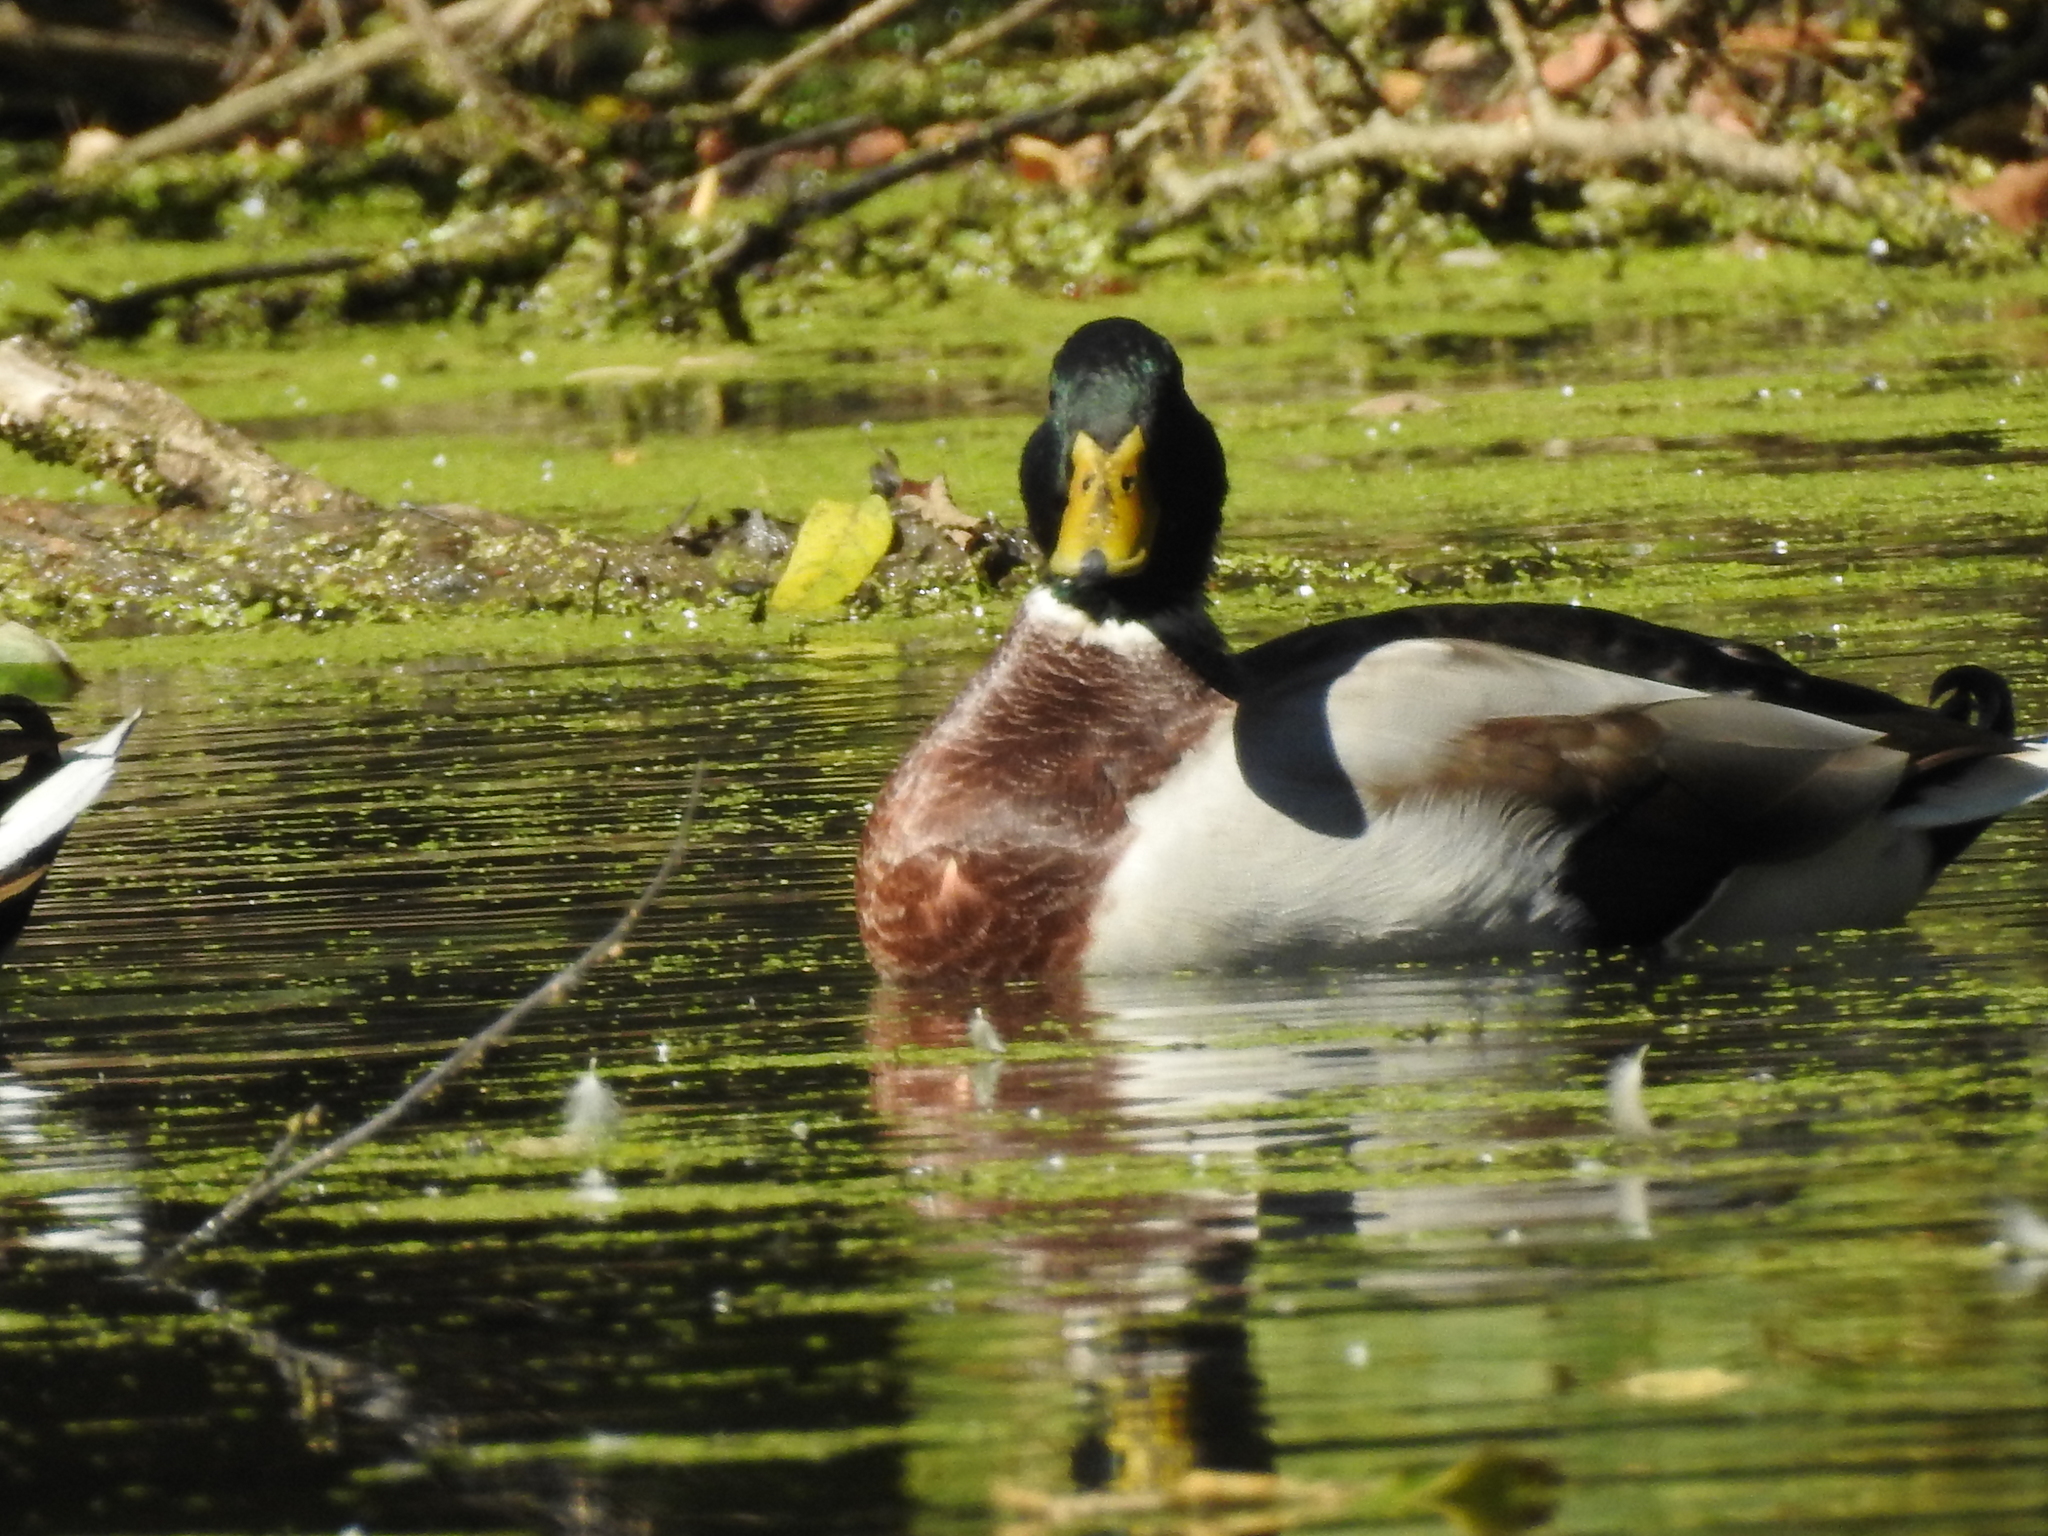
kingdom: Animalia
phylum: Chordata
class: Aves
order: Anseriformes
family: Anatidae
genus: Anas
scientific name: Anas platyrhynchos
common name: Mallard
